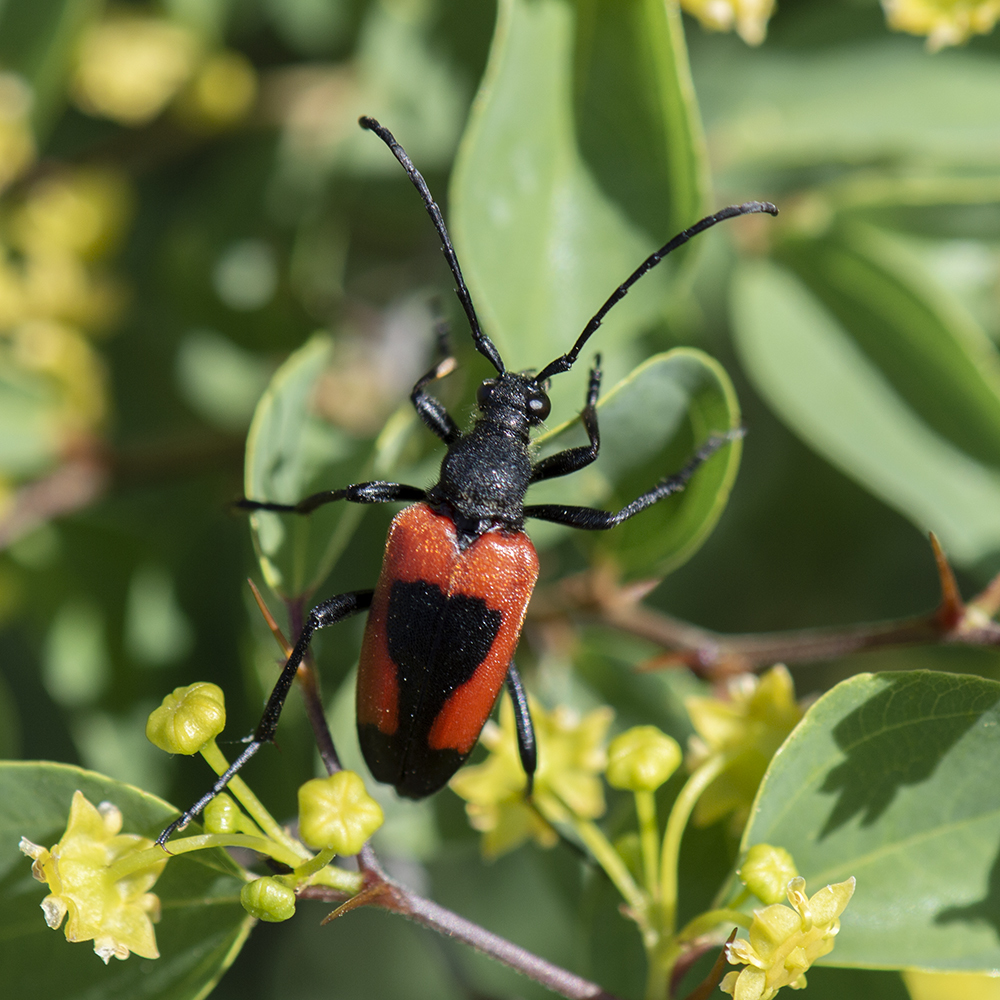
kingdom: Animalia
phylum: Arthropoda
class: Insecta
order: Coleoptera
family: Cerambycidae
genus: Stictoleptura
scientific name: Stictoleptura cordigera
